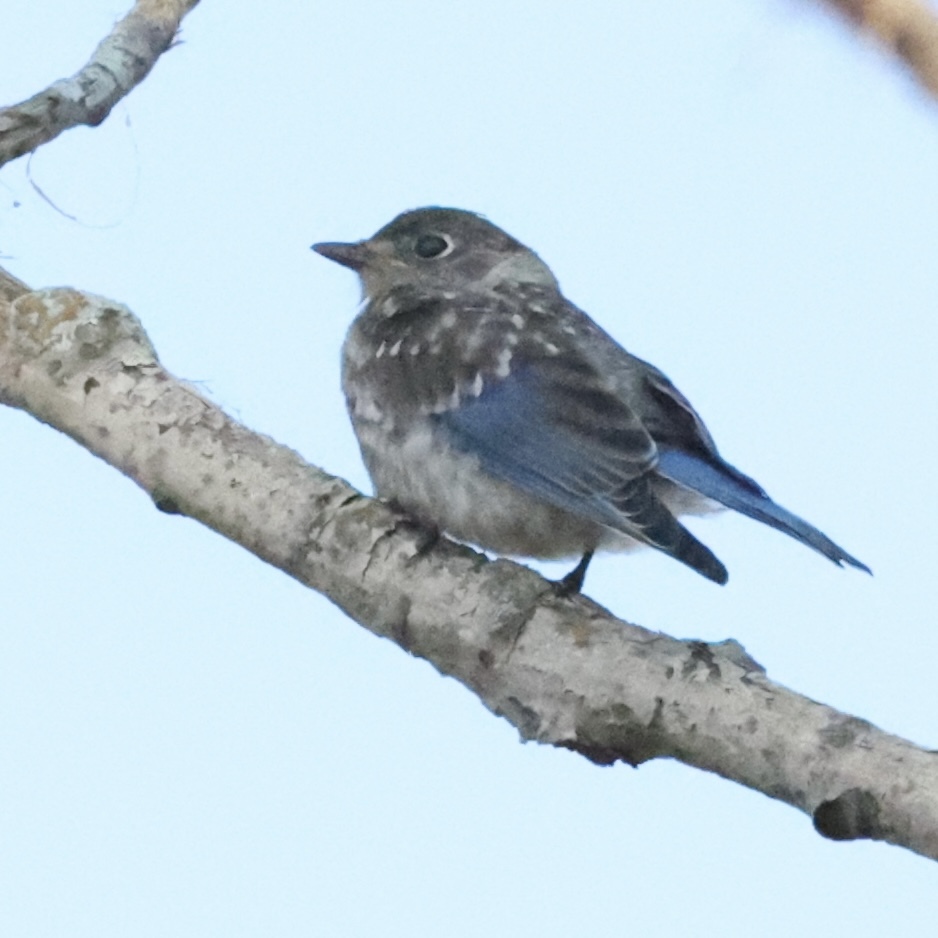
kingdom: Animalia
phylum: Chordata
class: Aves
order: Passeriformes
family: Turdidae
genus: Sialia
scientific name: Sialia sialis
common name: Eastern bluebird
